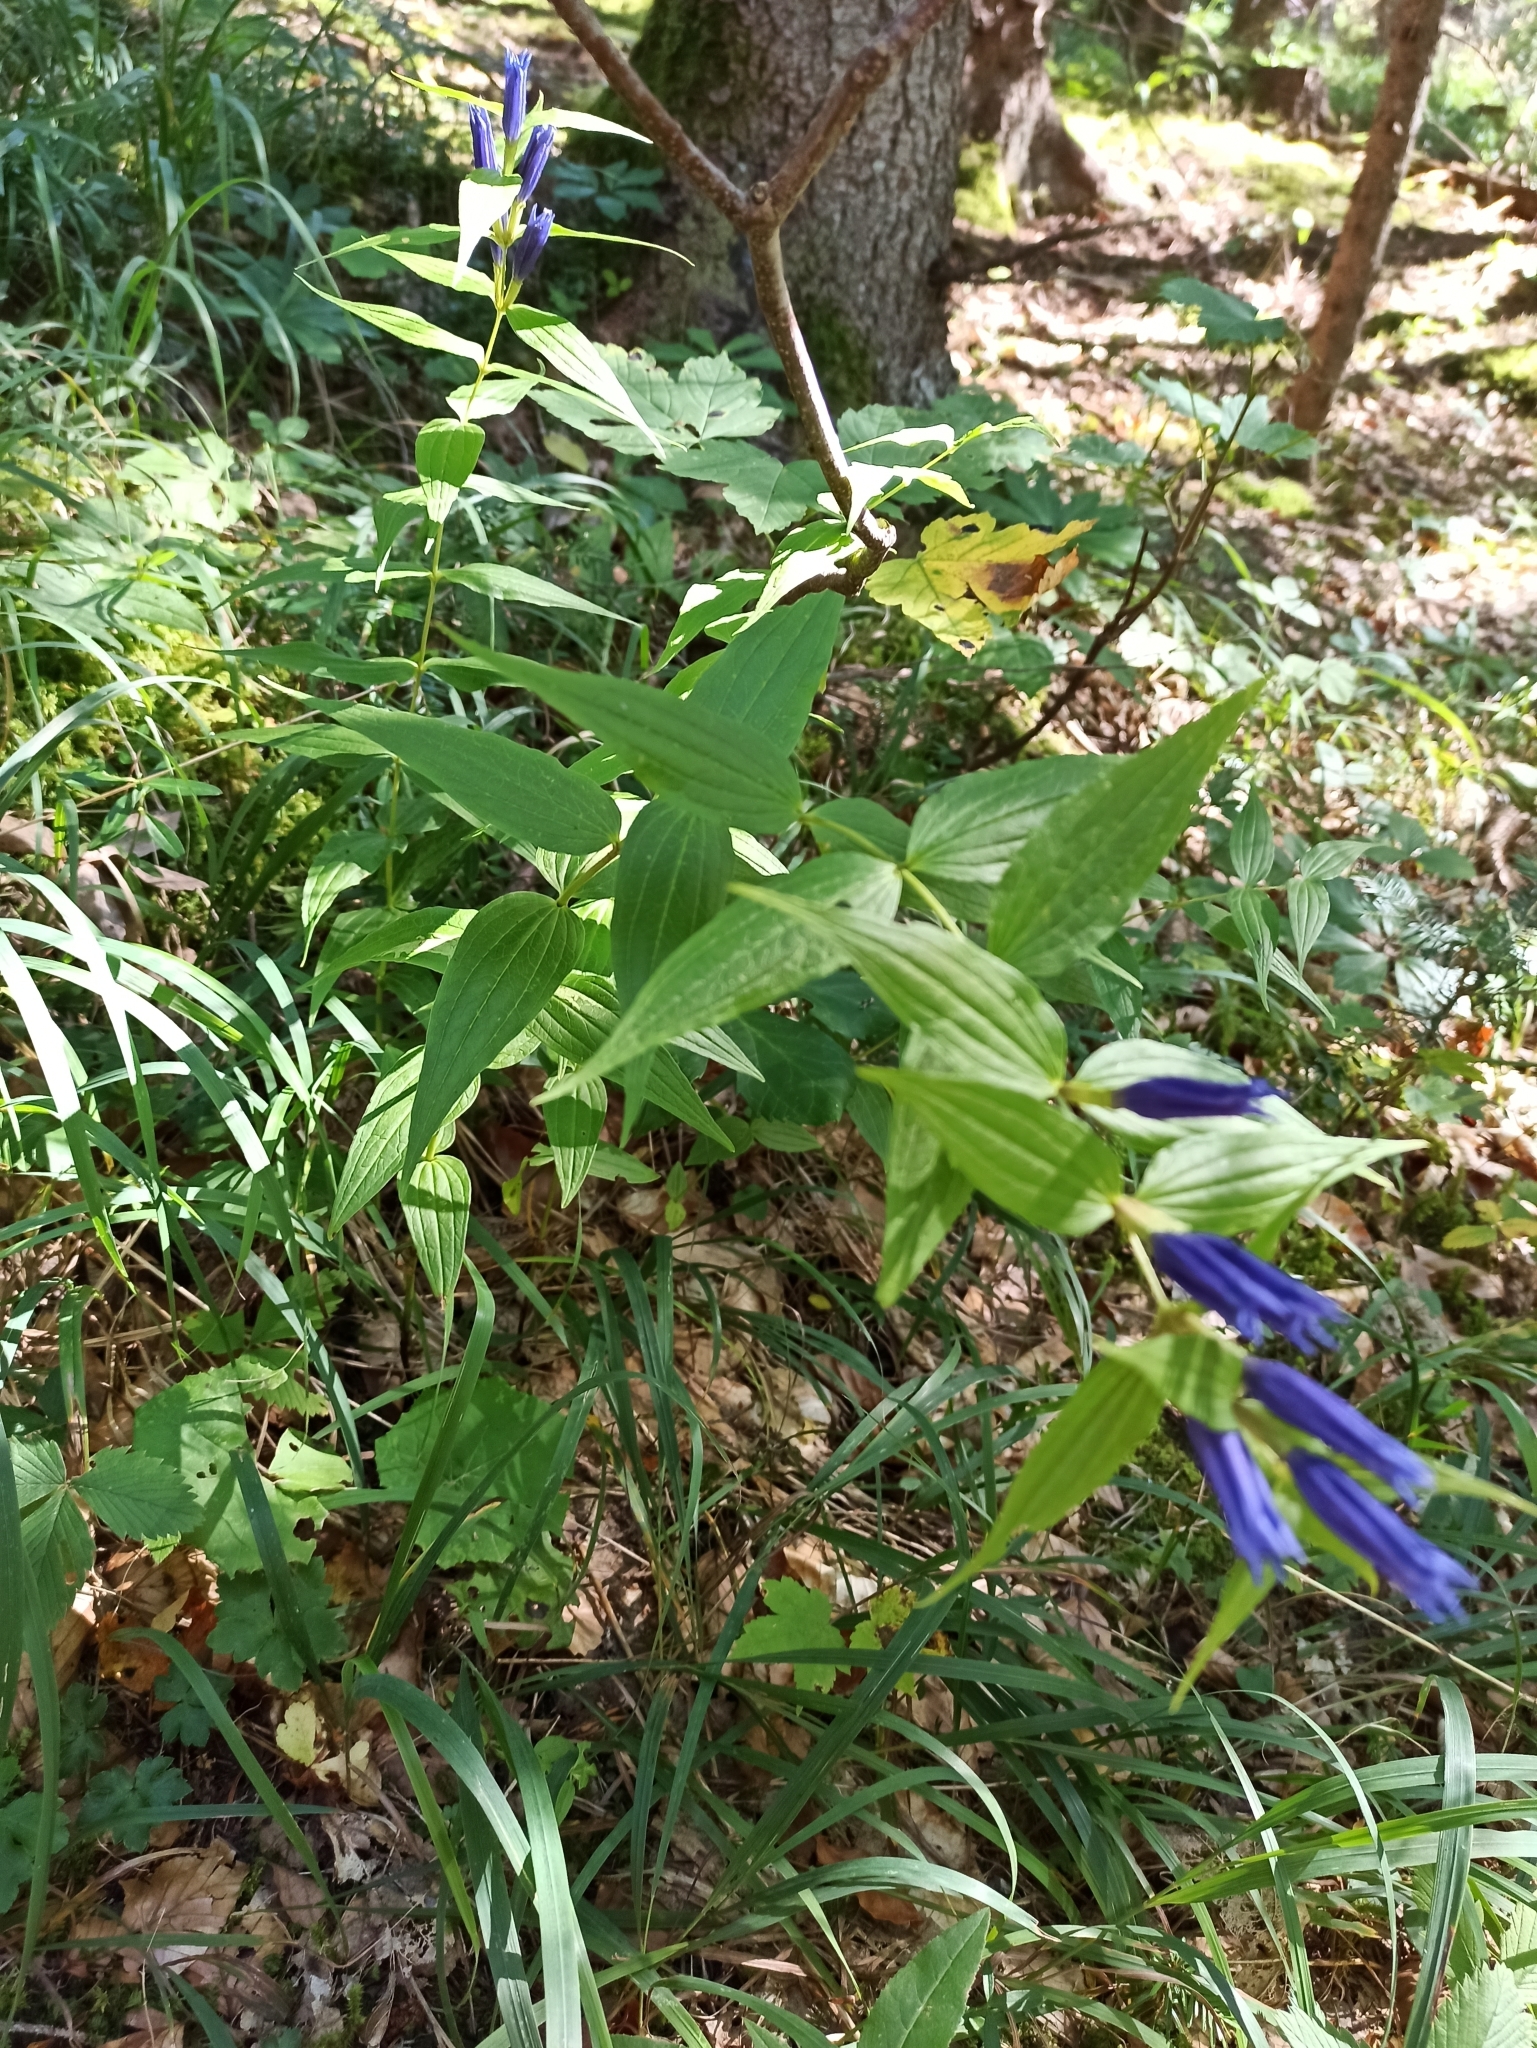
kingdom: Plantae
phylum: Tracheophyta
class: Magnoliopsida
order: Gentianales
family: Gentianaceae
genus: Gentiana
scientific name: Gentiana asclepiadea
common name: Willow gentian
